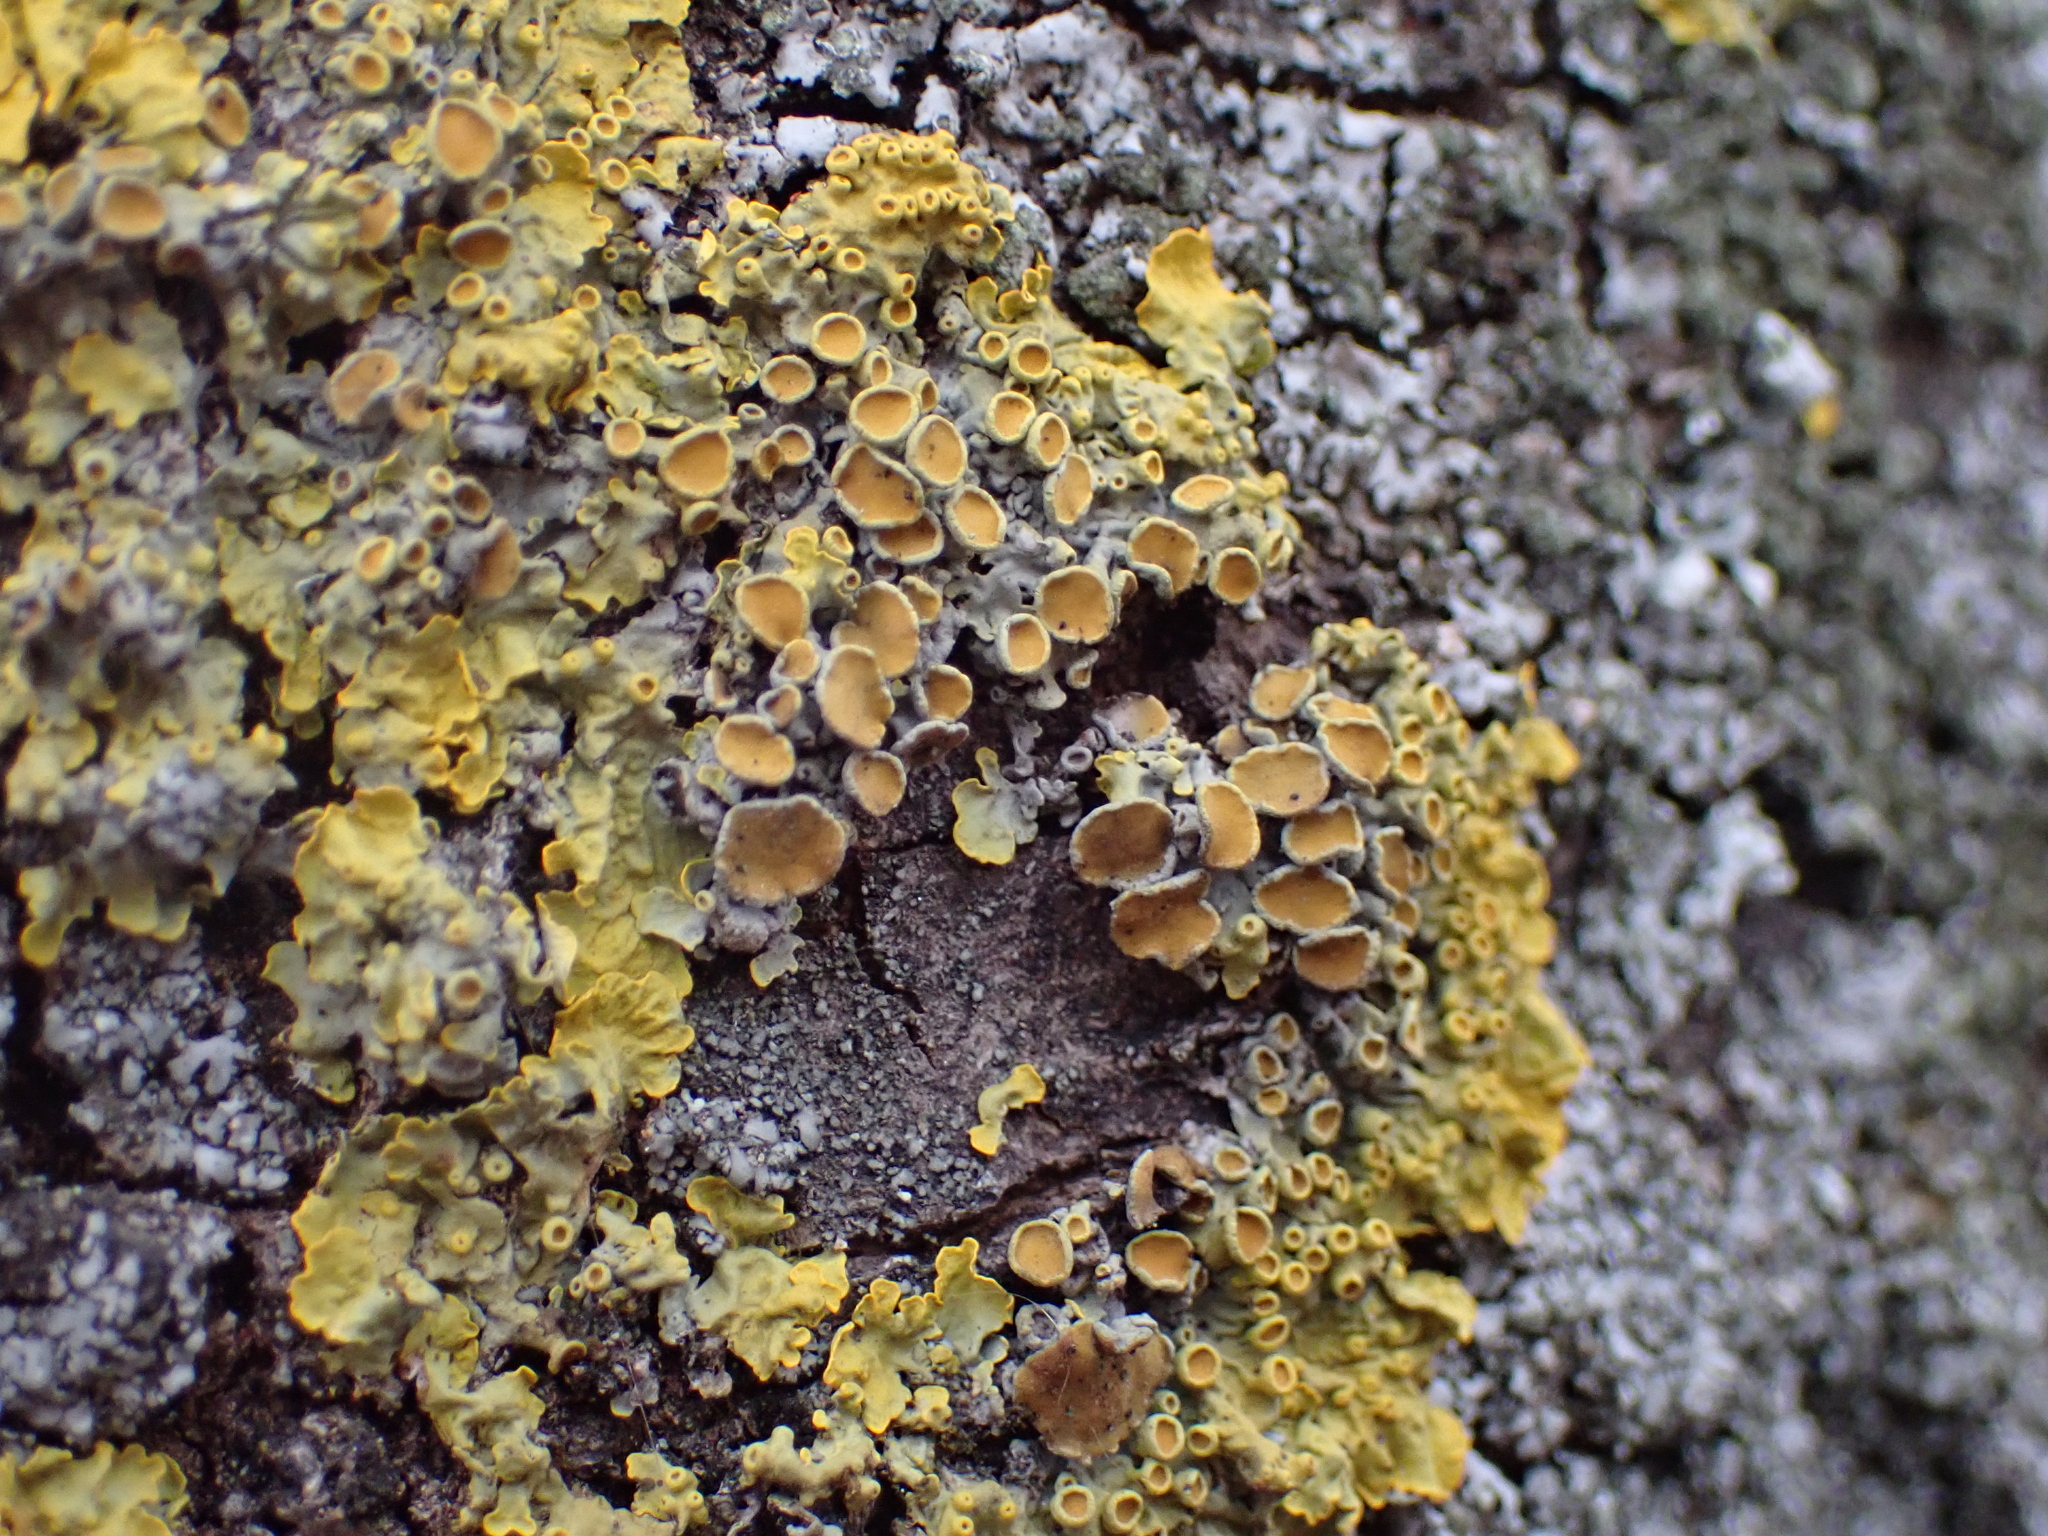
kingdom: Fungi
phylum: Ascomycota
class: Lecanoromycetes
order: Teloschistales
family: Teloschistaceae
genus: Xanthoria
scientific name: Xanthoria parietina
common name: Common orange lichen
